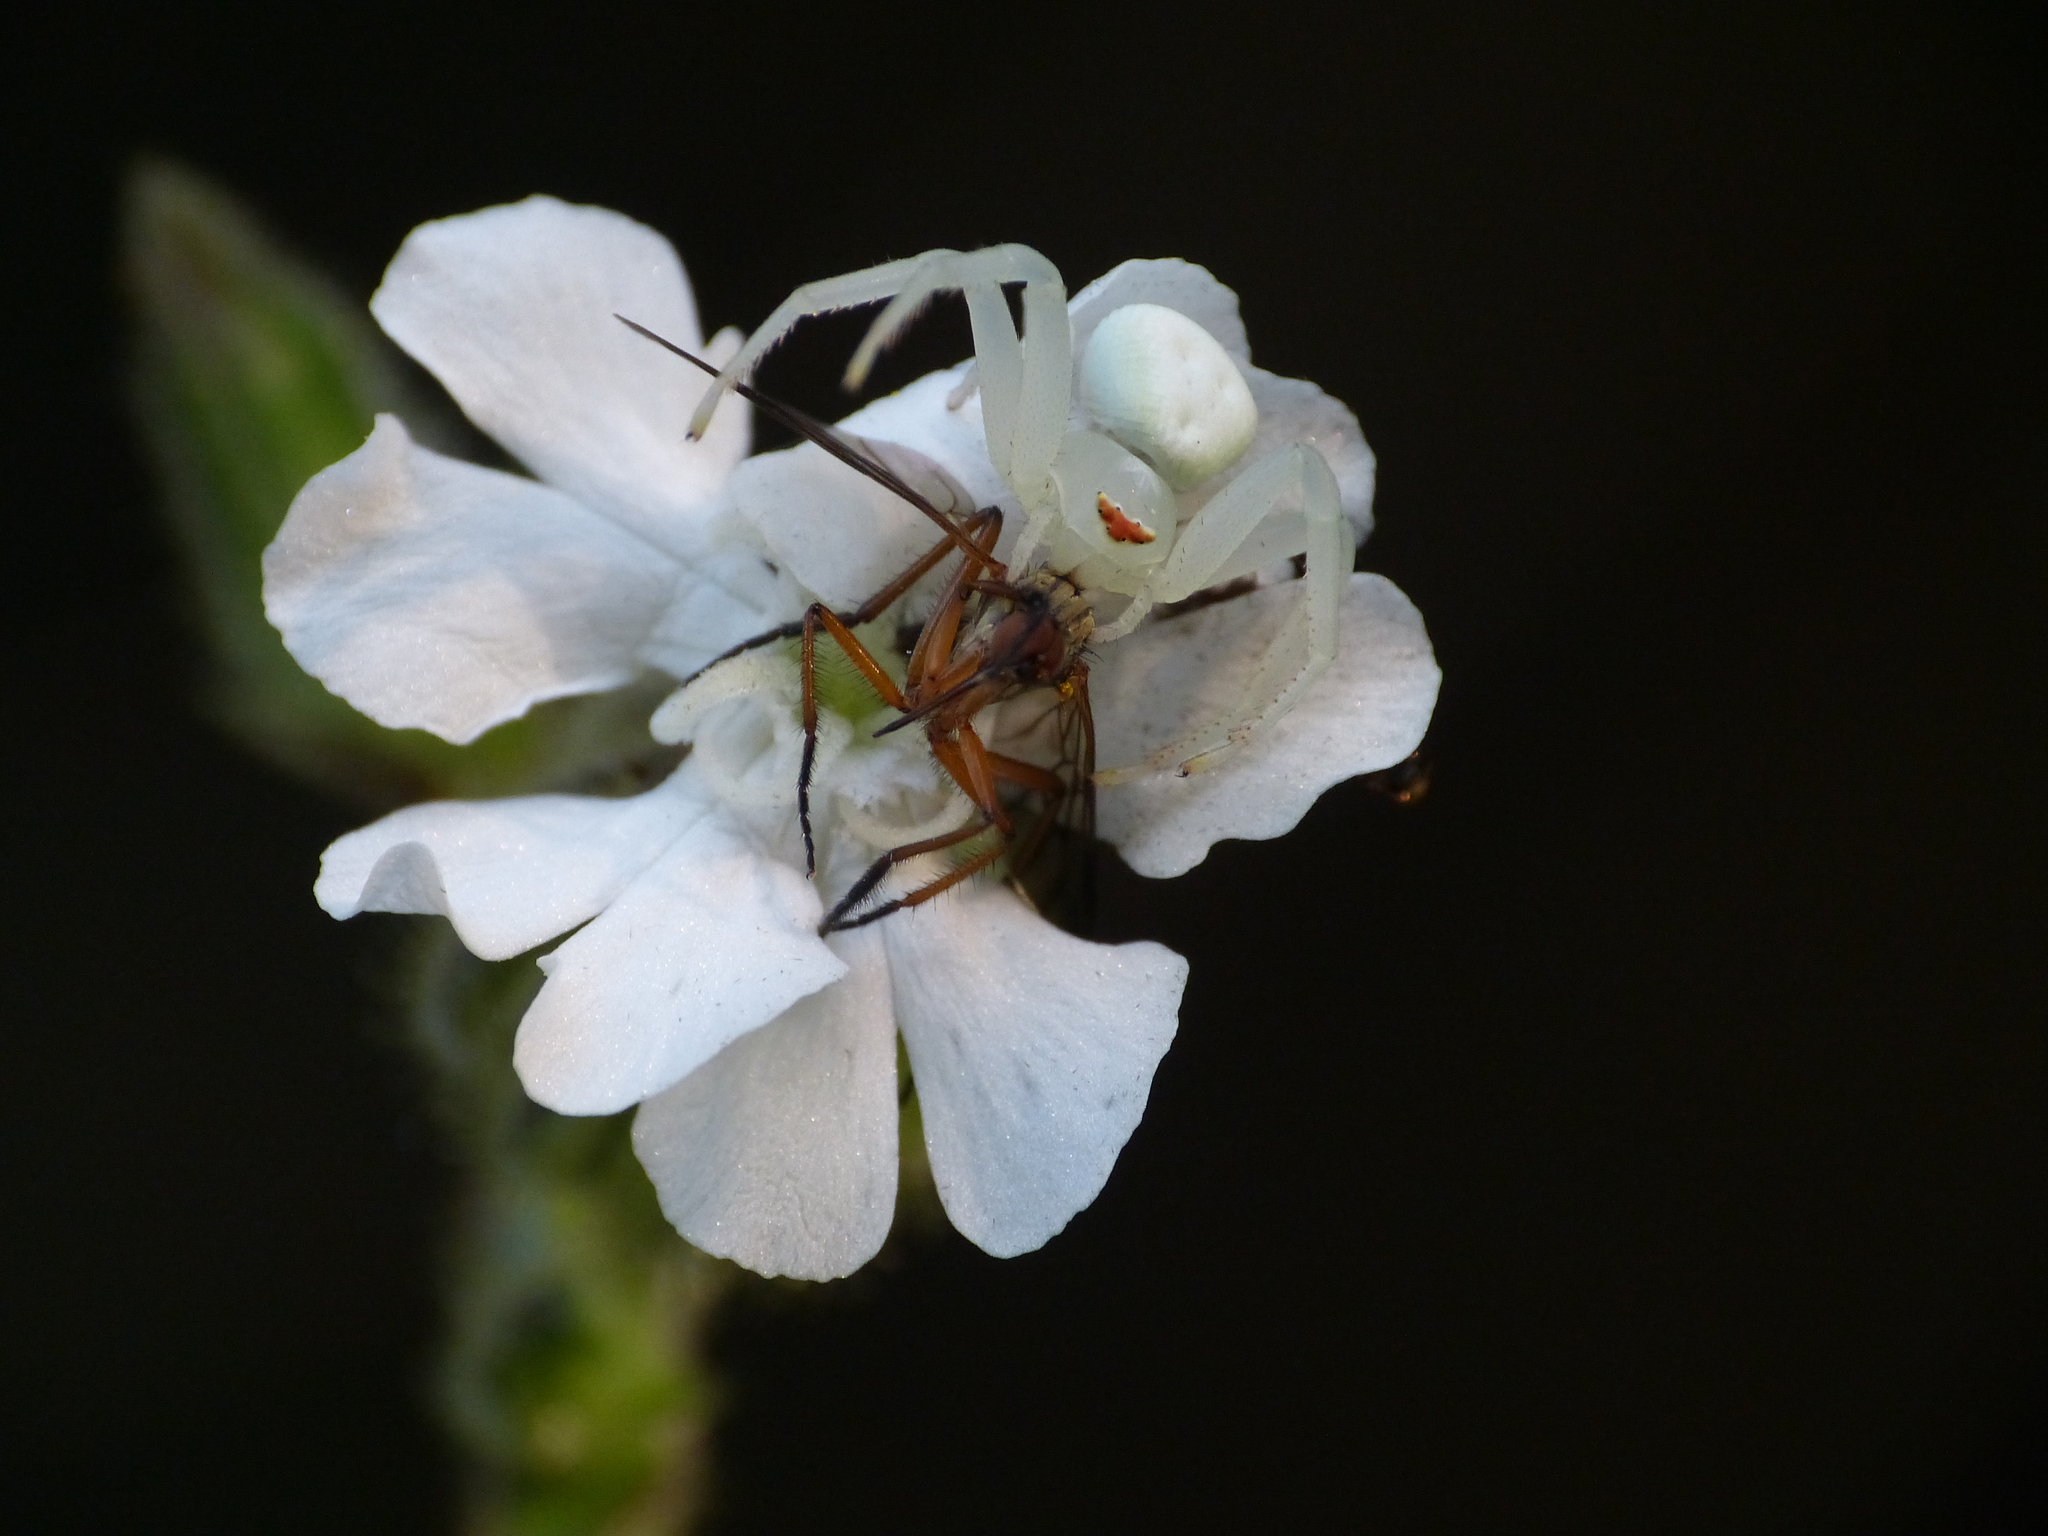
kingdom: Animalia
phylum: Arthropoda
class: Arachnida
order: Araneae
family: Thomisidae
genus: Misumena
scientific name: Misumena vatia
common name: Goldenrod crab spider
